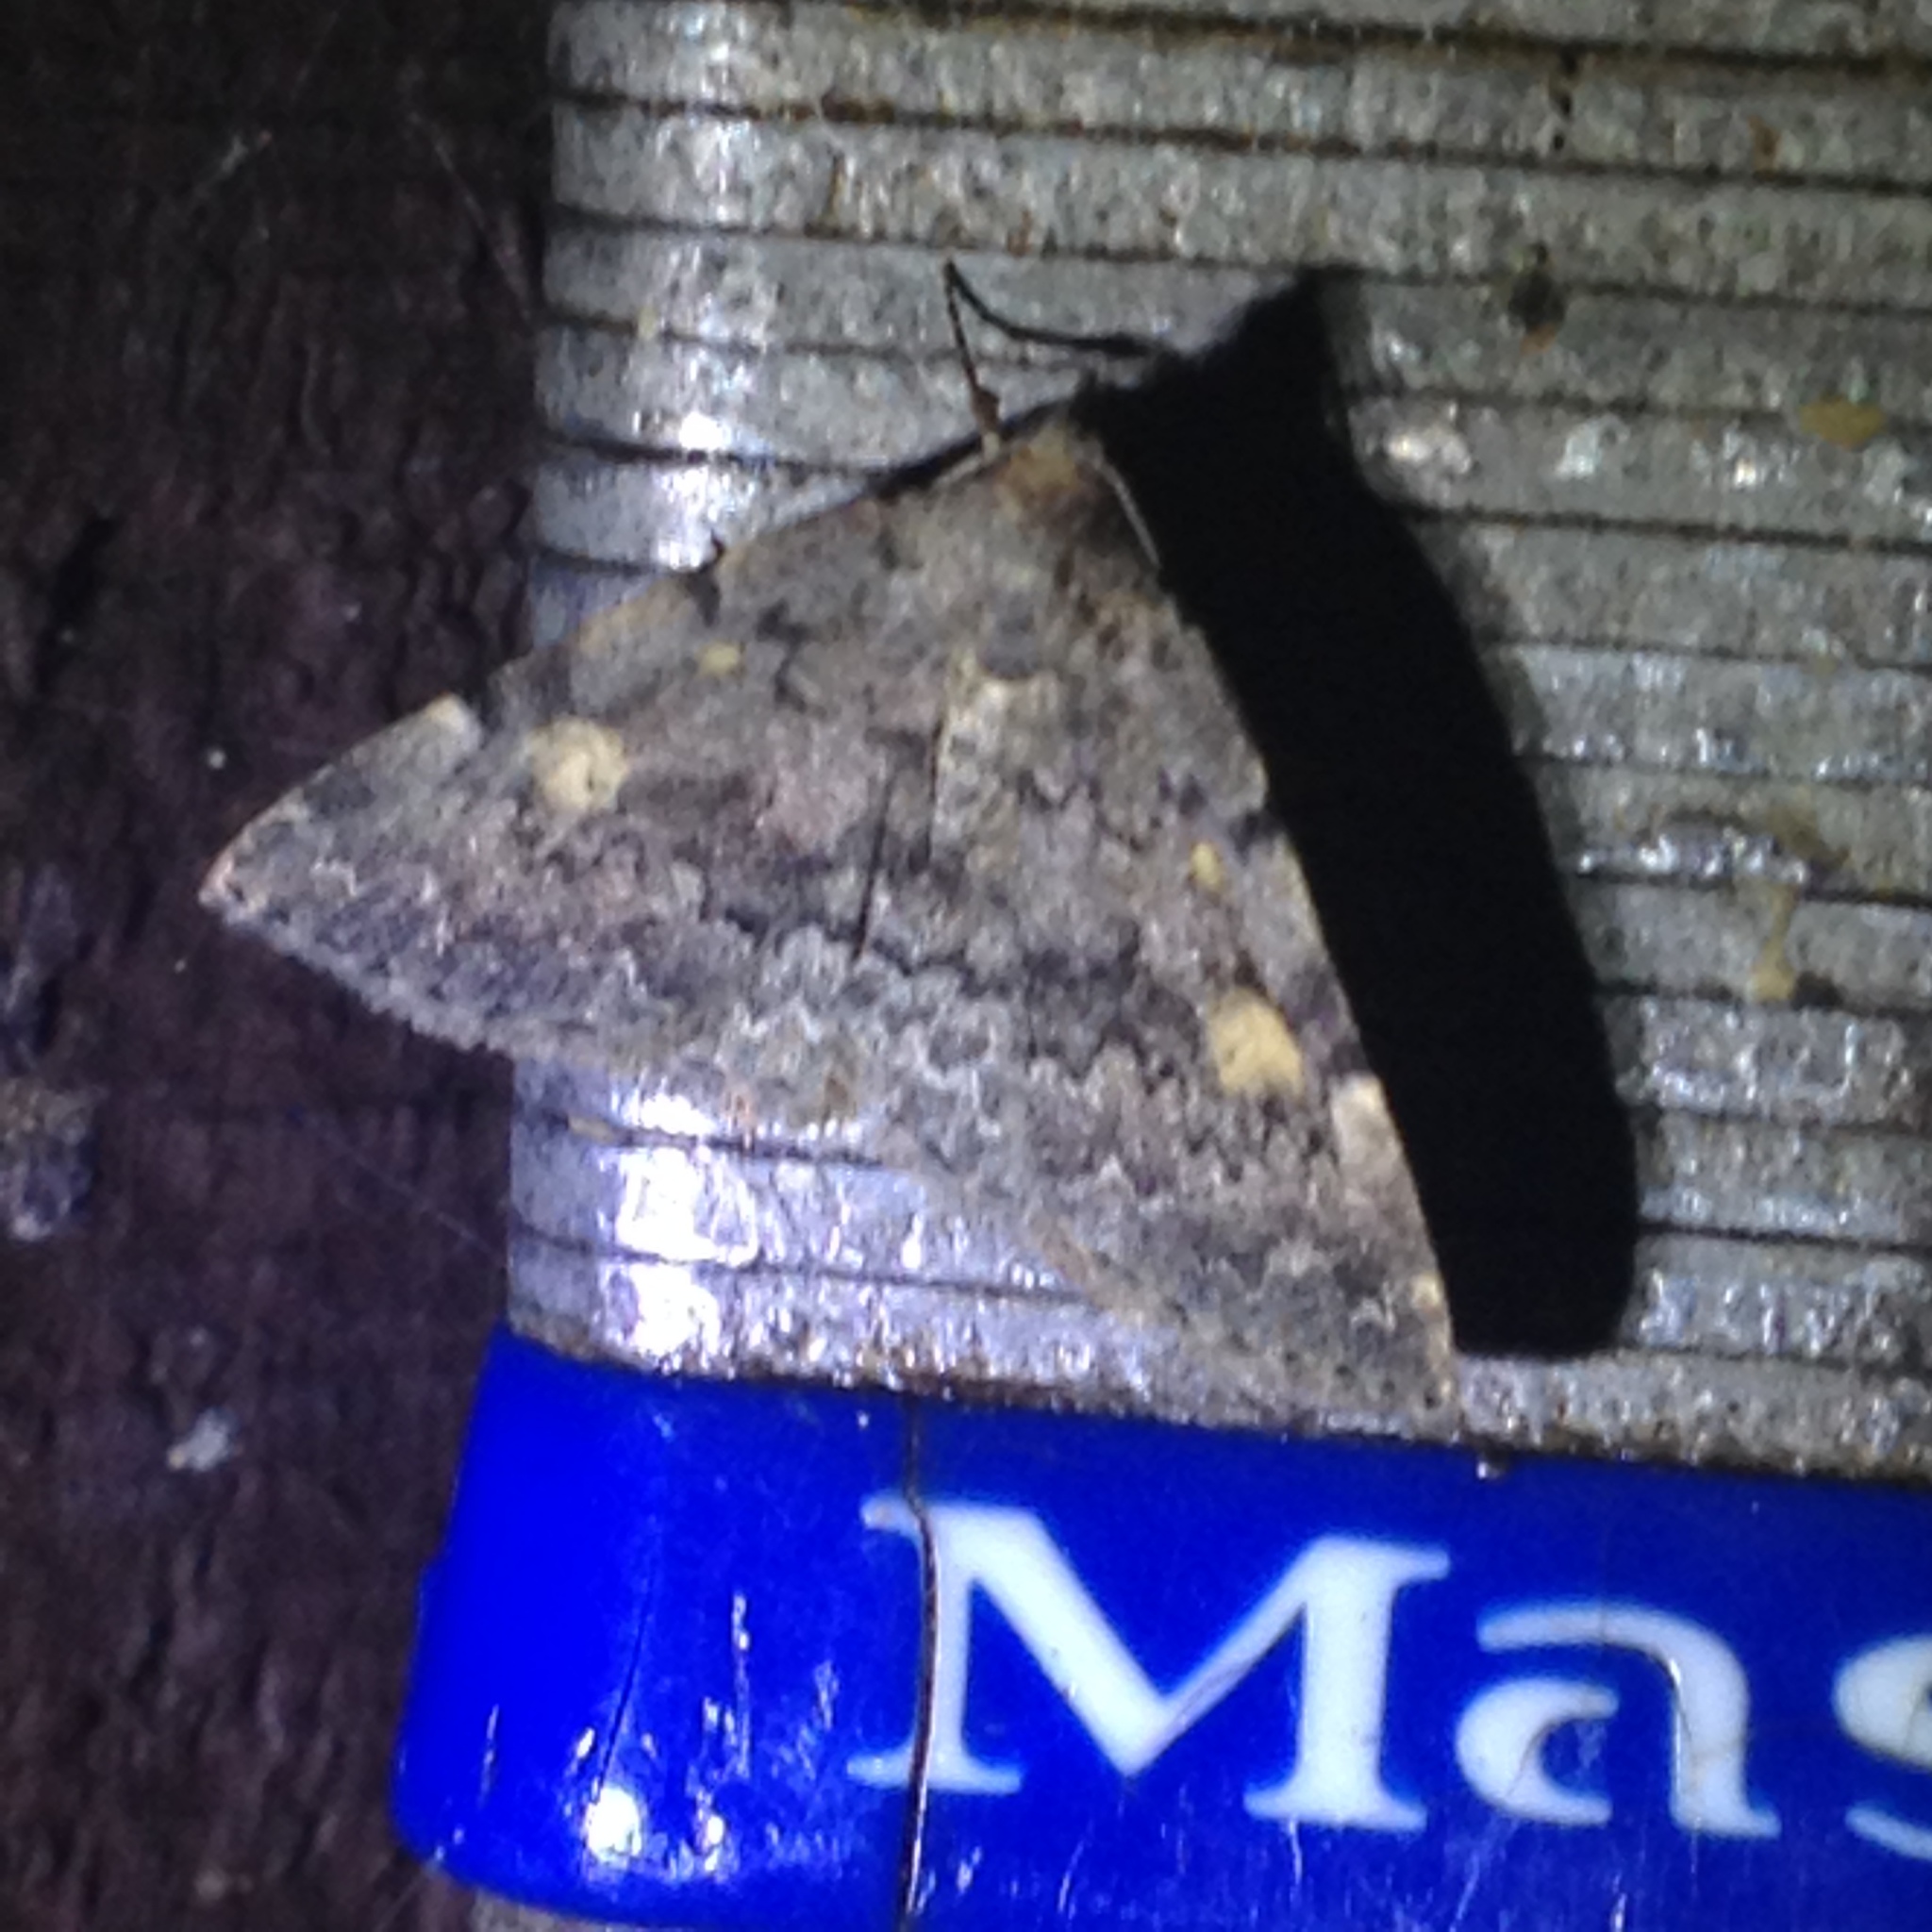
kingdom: Animalia
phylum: Arthropoda
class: Insecta
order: Lepidoptera
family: Erebidae
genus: Idia
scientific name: Idia aemula
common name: Common idia moth
